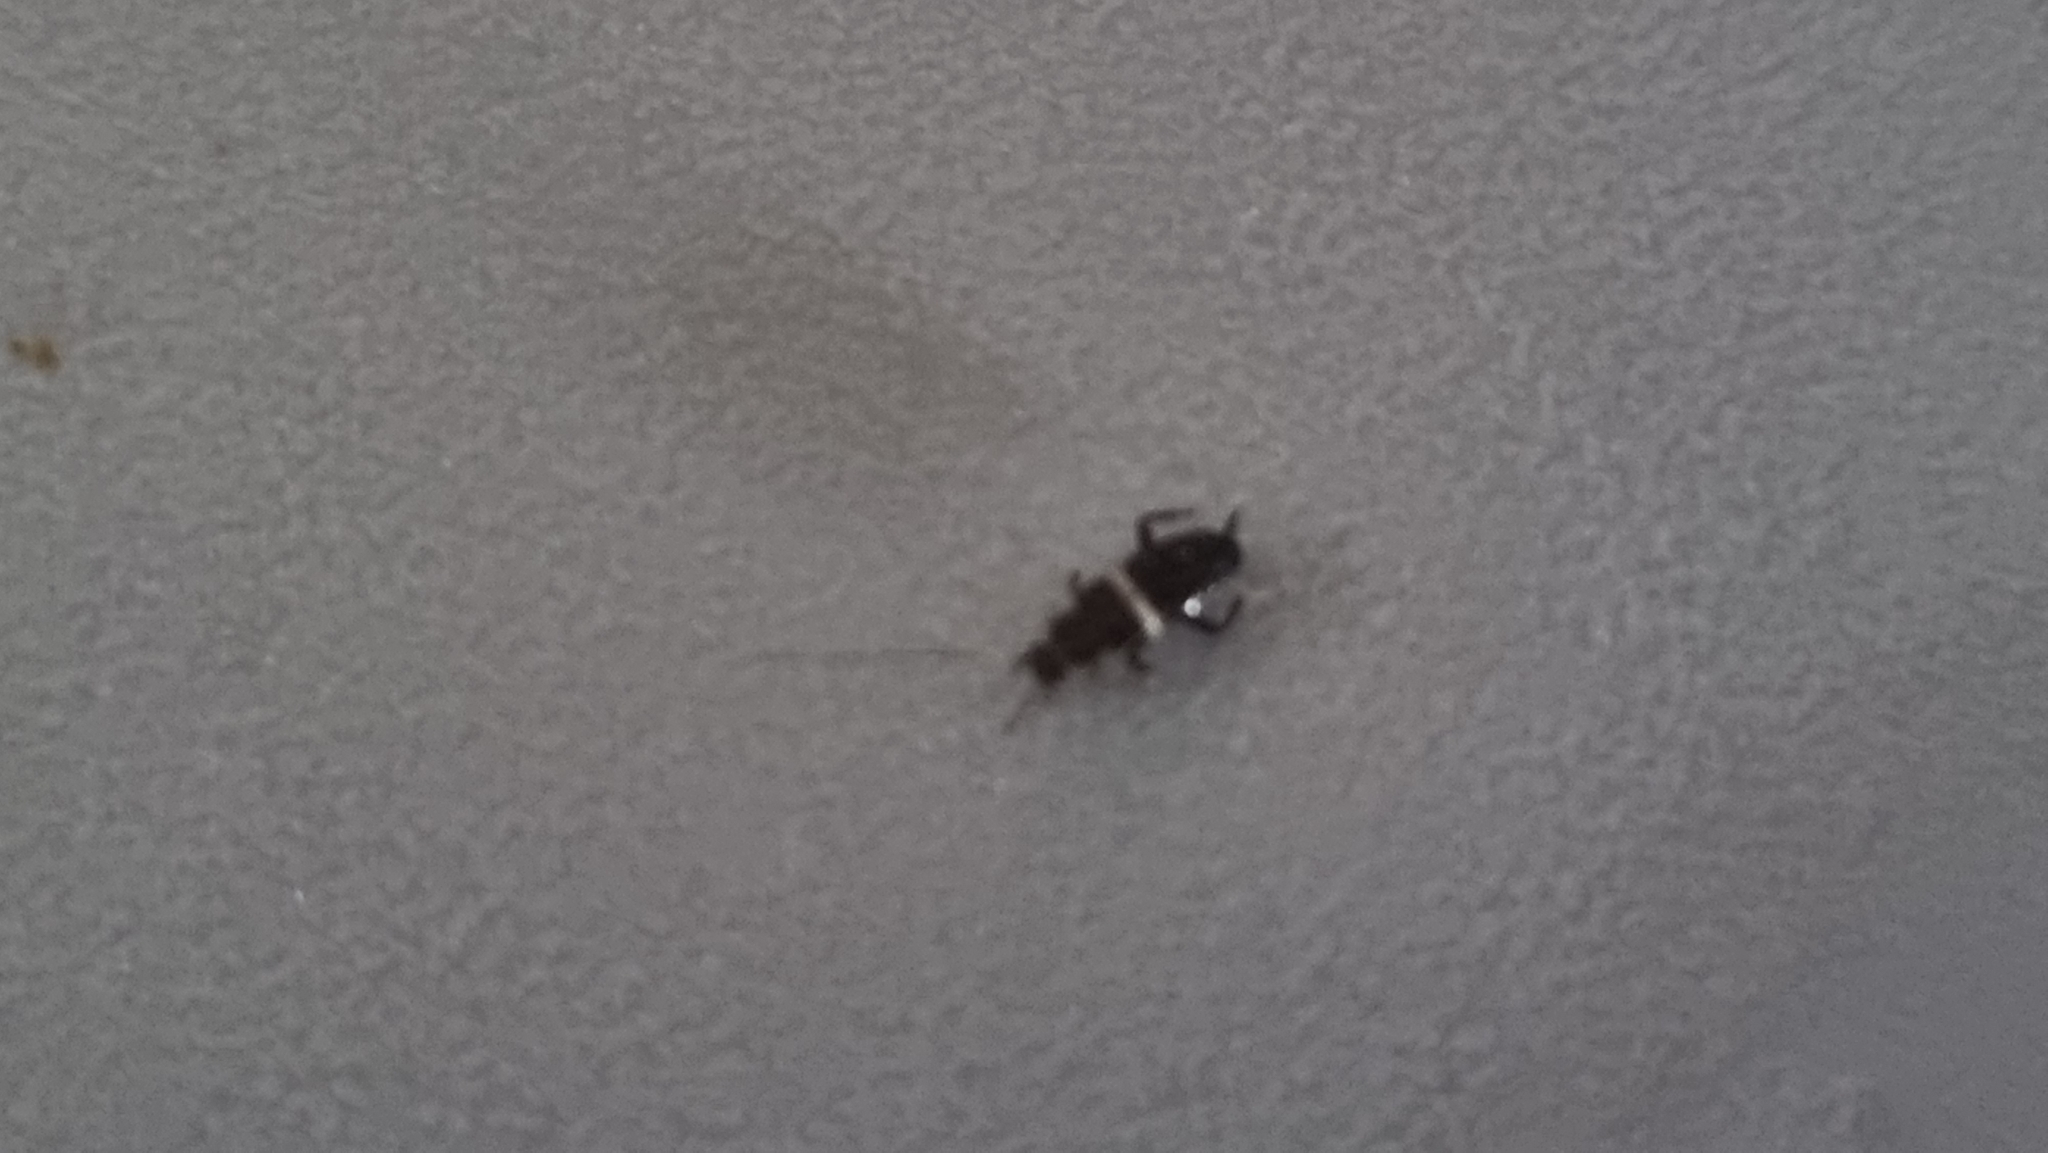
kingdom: Animalia
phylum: Arthropoda
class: Insecta
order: Blattodea
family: Ectobiidae
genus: Planuncus
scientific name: Planuncus vinzi
